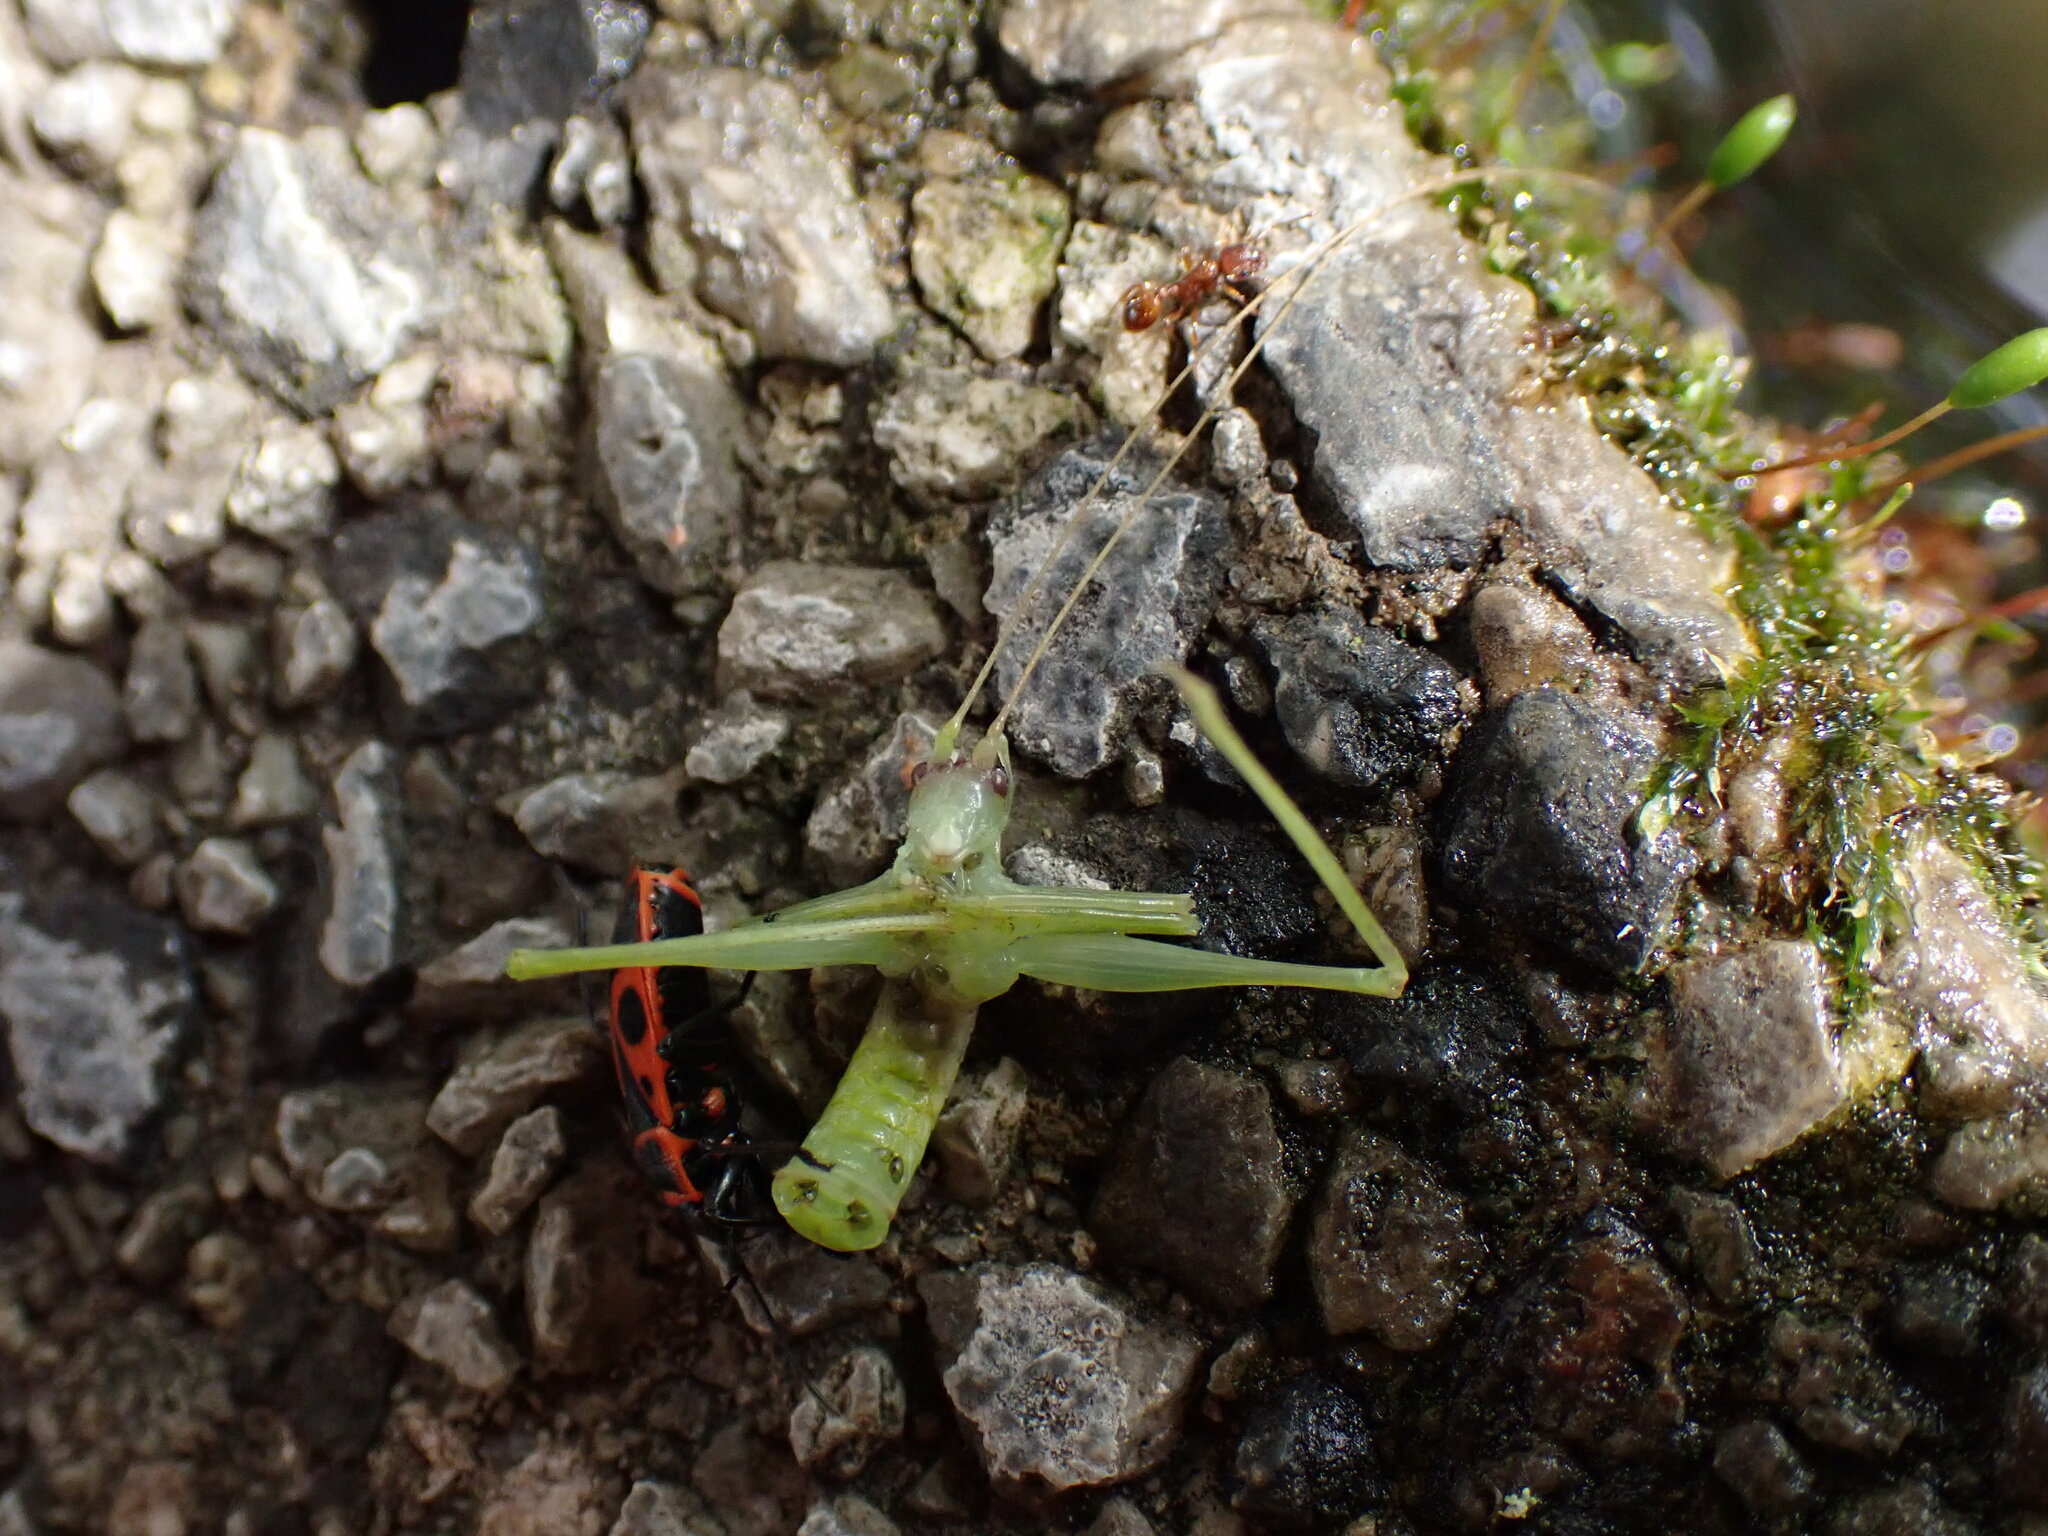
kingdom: Animalia
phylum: Arthropoda
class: Insecta
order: Hemiptera
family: Pyrrhocoridae
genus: Pyrrhocoris
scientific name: Pyrrhocoris apterus
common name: Firebug
